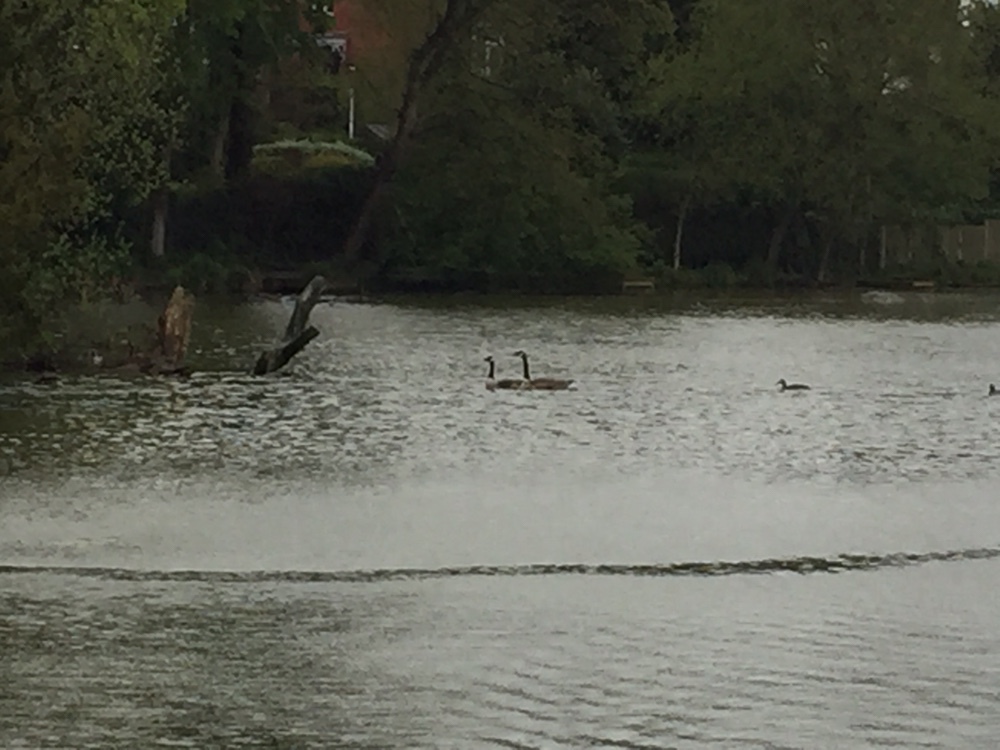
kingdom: Animalia
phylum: Chordata
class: Aves
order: Anseriformes
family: Anatidae
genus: Branta
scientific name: Branta canadensis
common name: Canada goose
